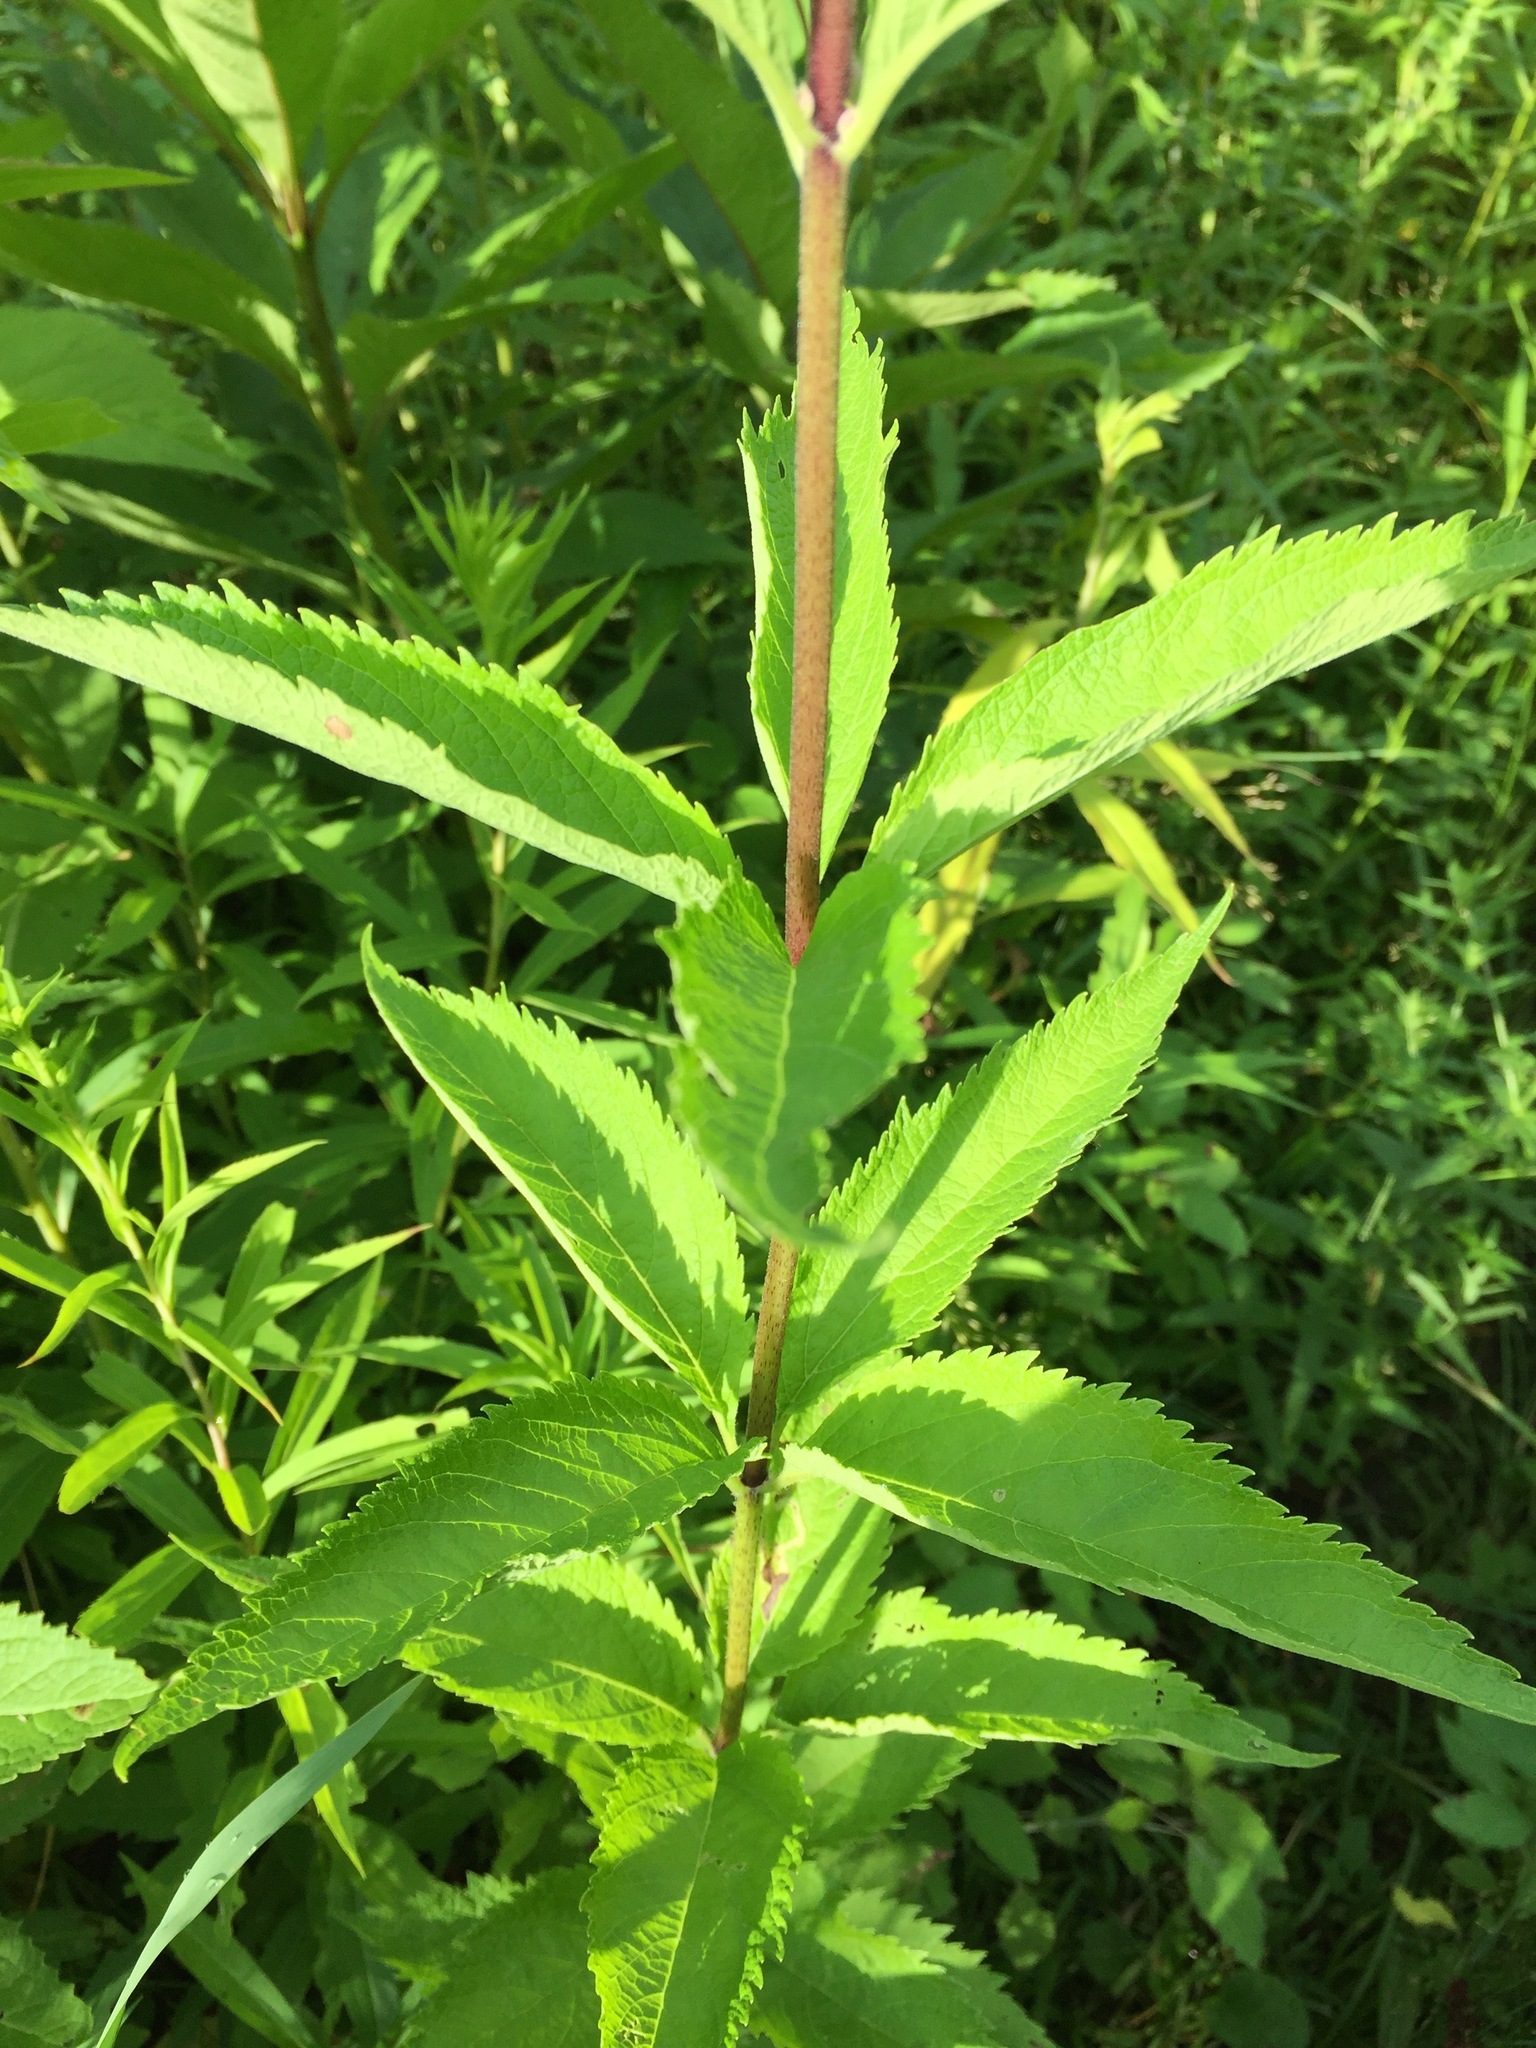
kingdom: Plantae
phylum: Tracheophyta
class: Magnoliopsida
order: Asterales
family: Asteraceae
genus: Eutrochium
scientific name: Eutrochium maculatum
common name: Spotted joe pye weed
